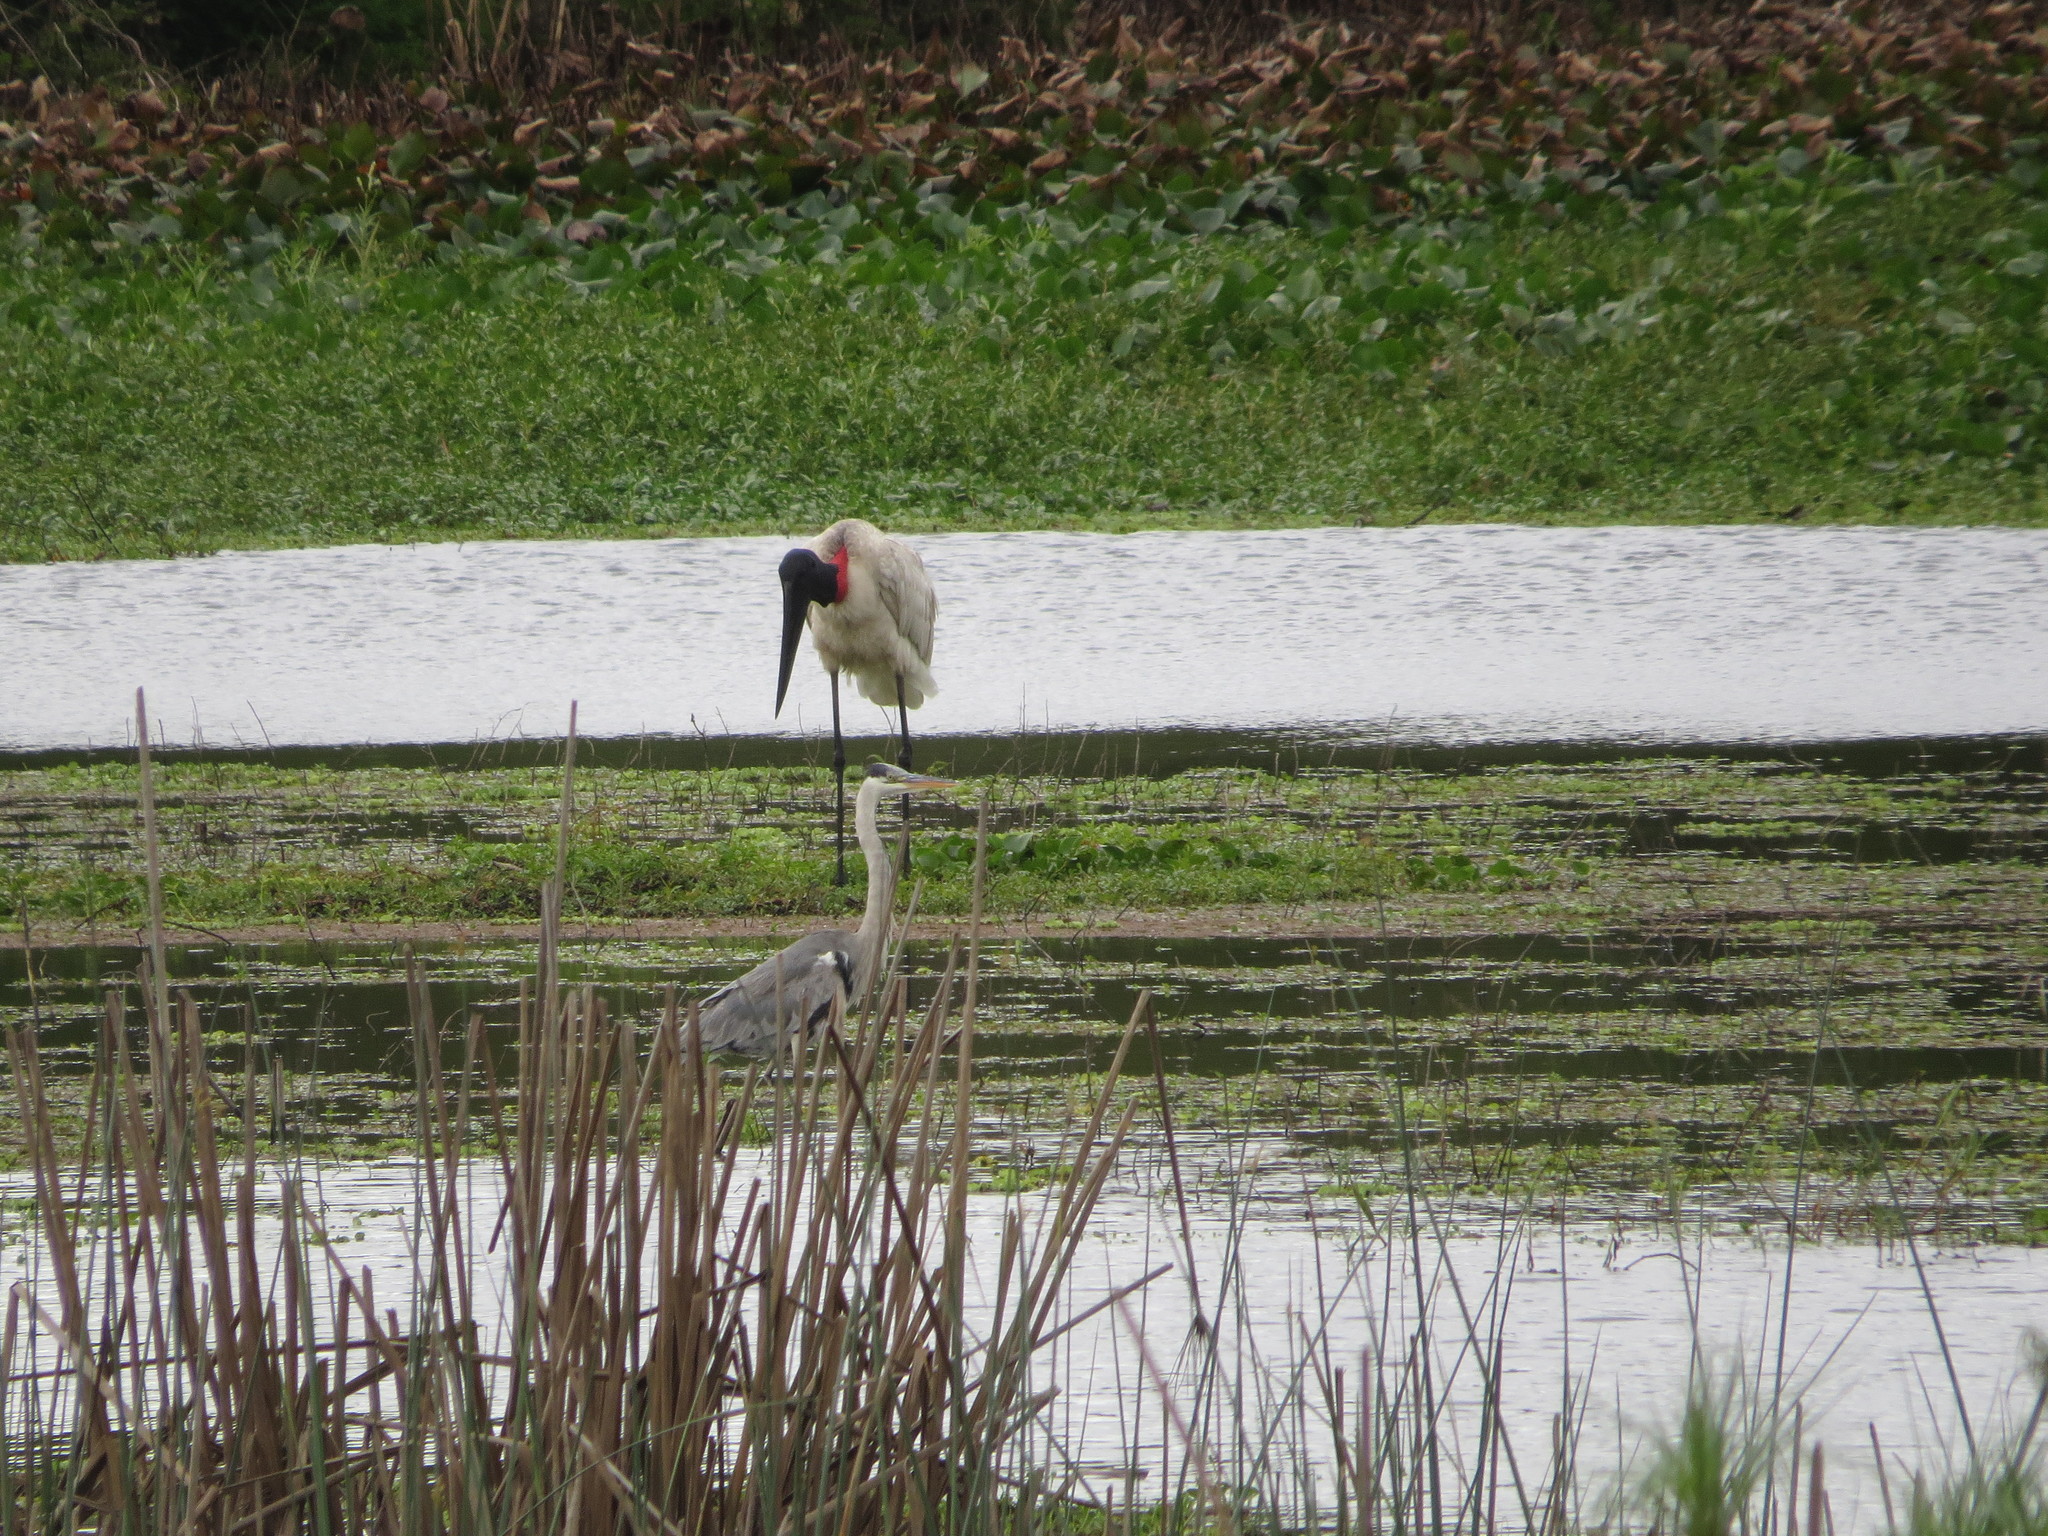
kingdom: Animalia
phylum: Chordata
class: Aves
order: Ciconiiformes
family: Ciconiidae
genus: Jabiru
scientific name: Jabiru mycteria
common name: Jabiru
